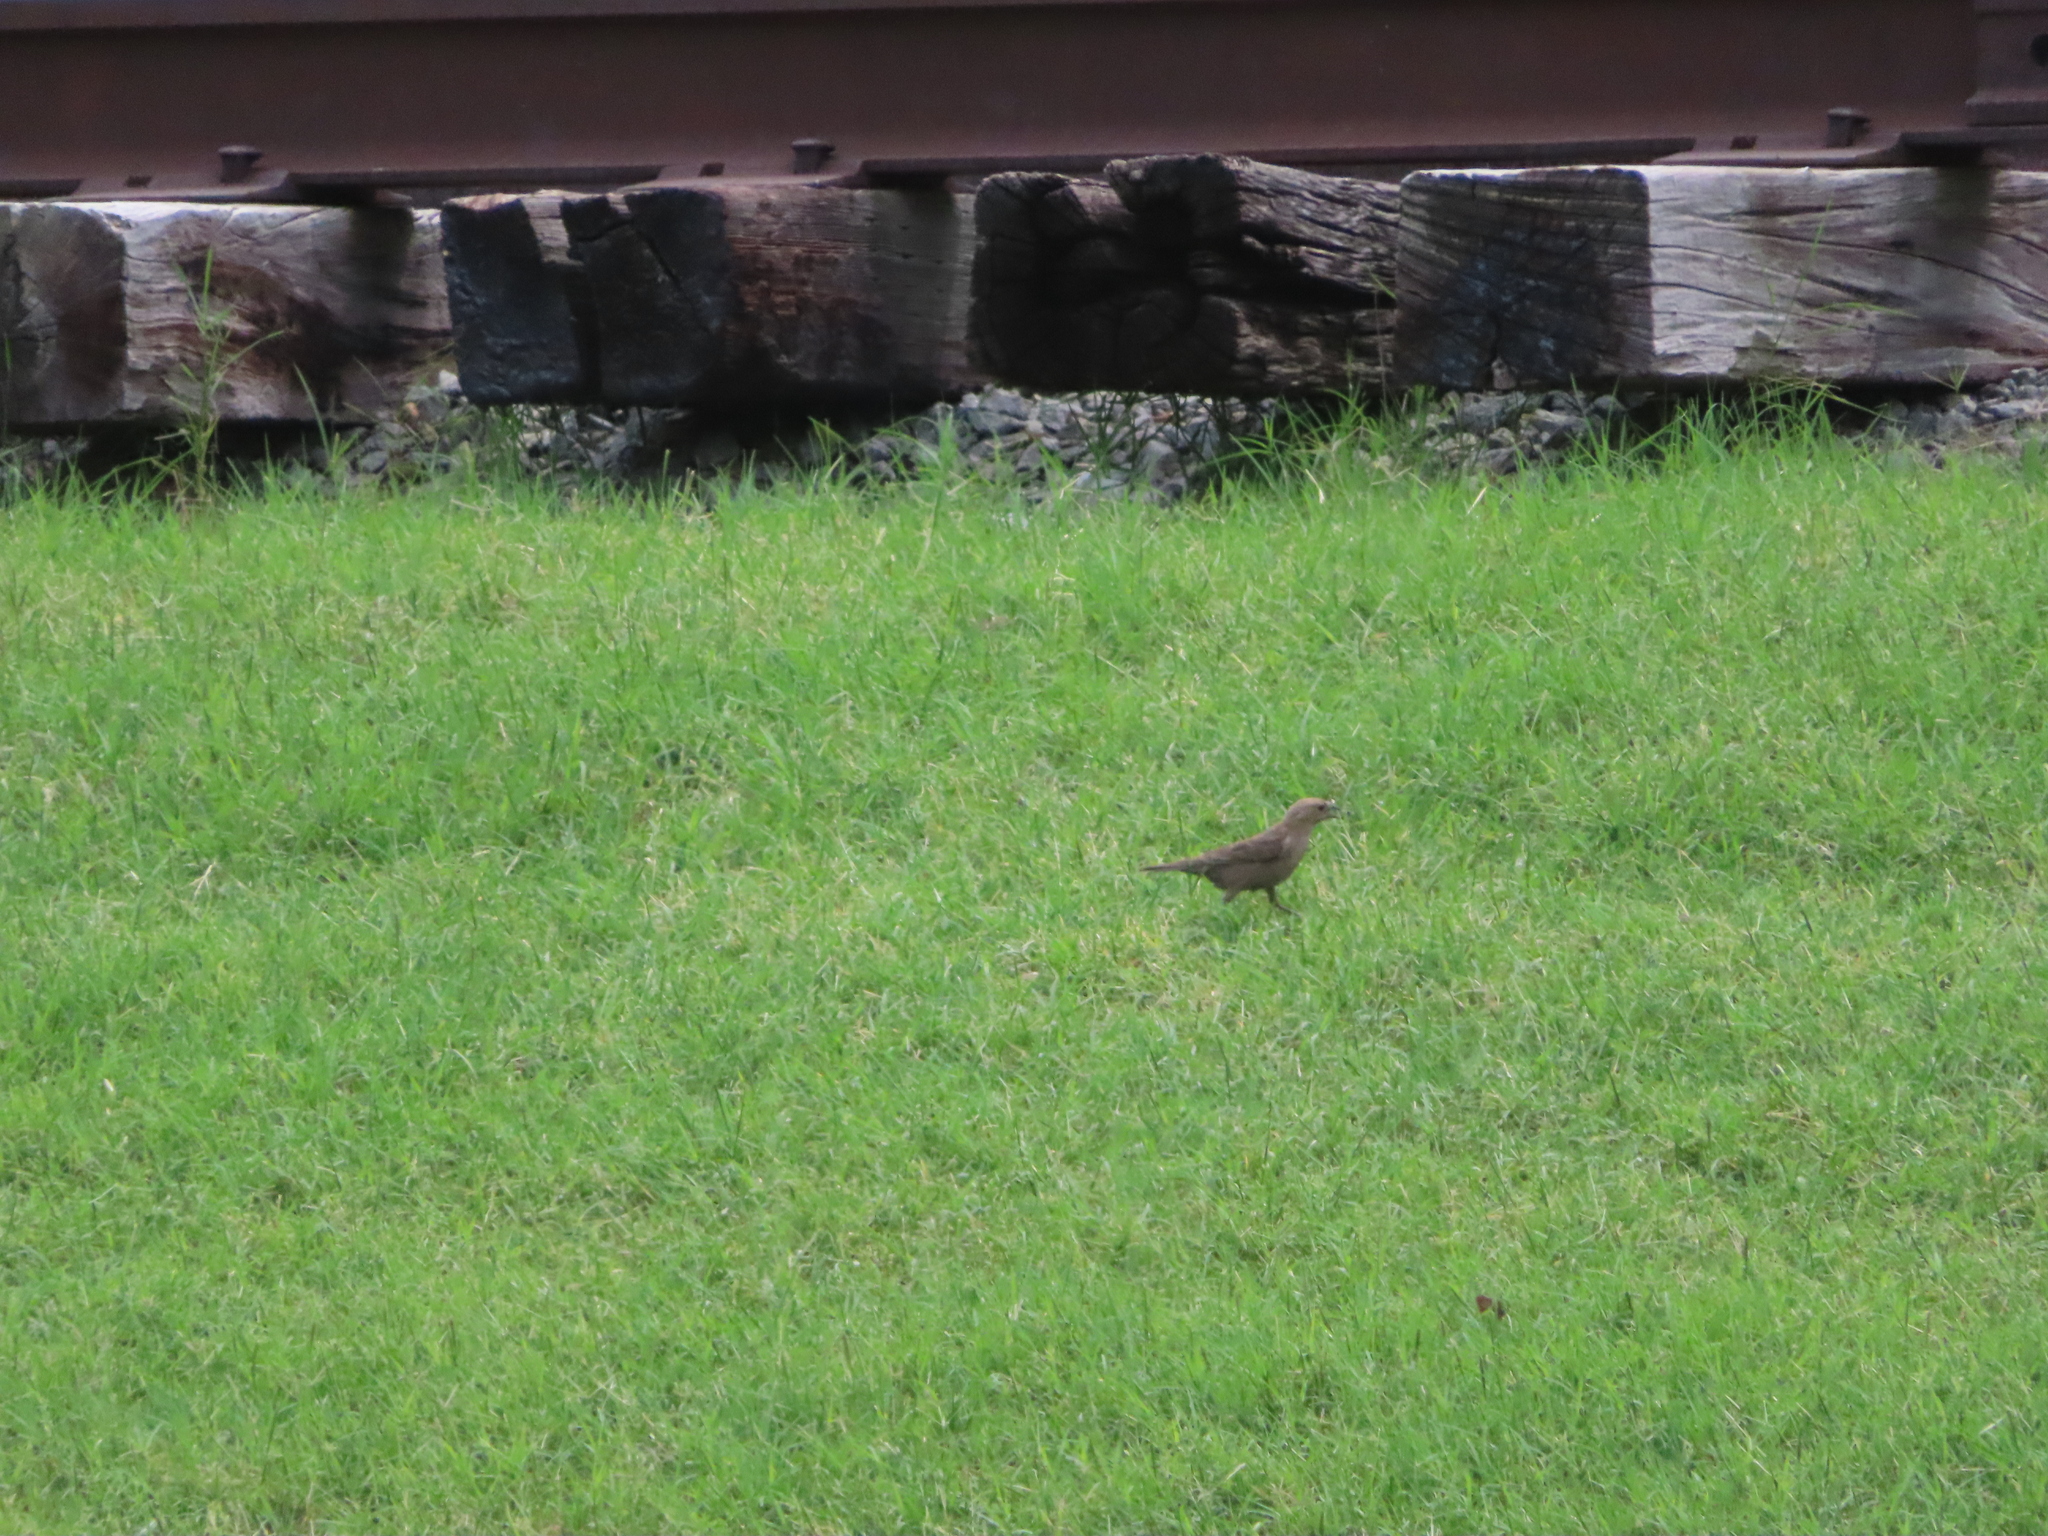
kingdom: Animalia
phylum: Chordata
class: Aves
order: Passeriformes
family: Icteridae
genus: Molothrus
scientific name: Molothrus ater
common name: Brown-headed cowbird
